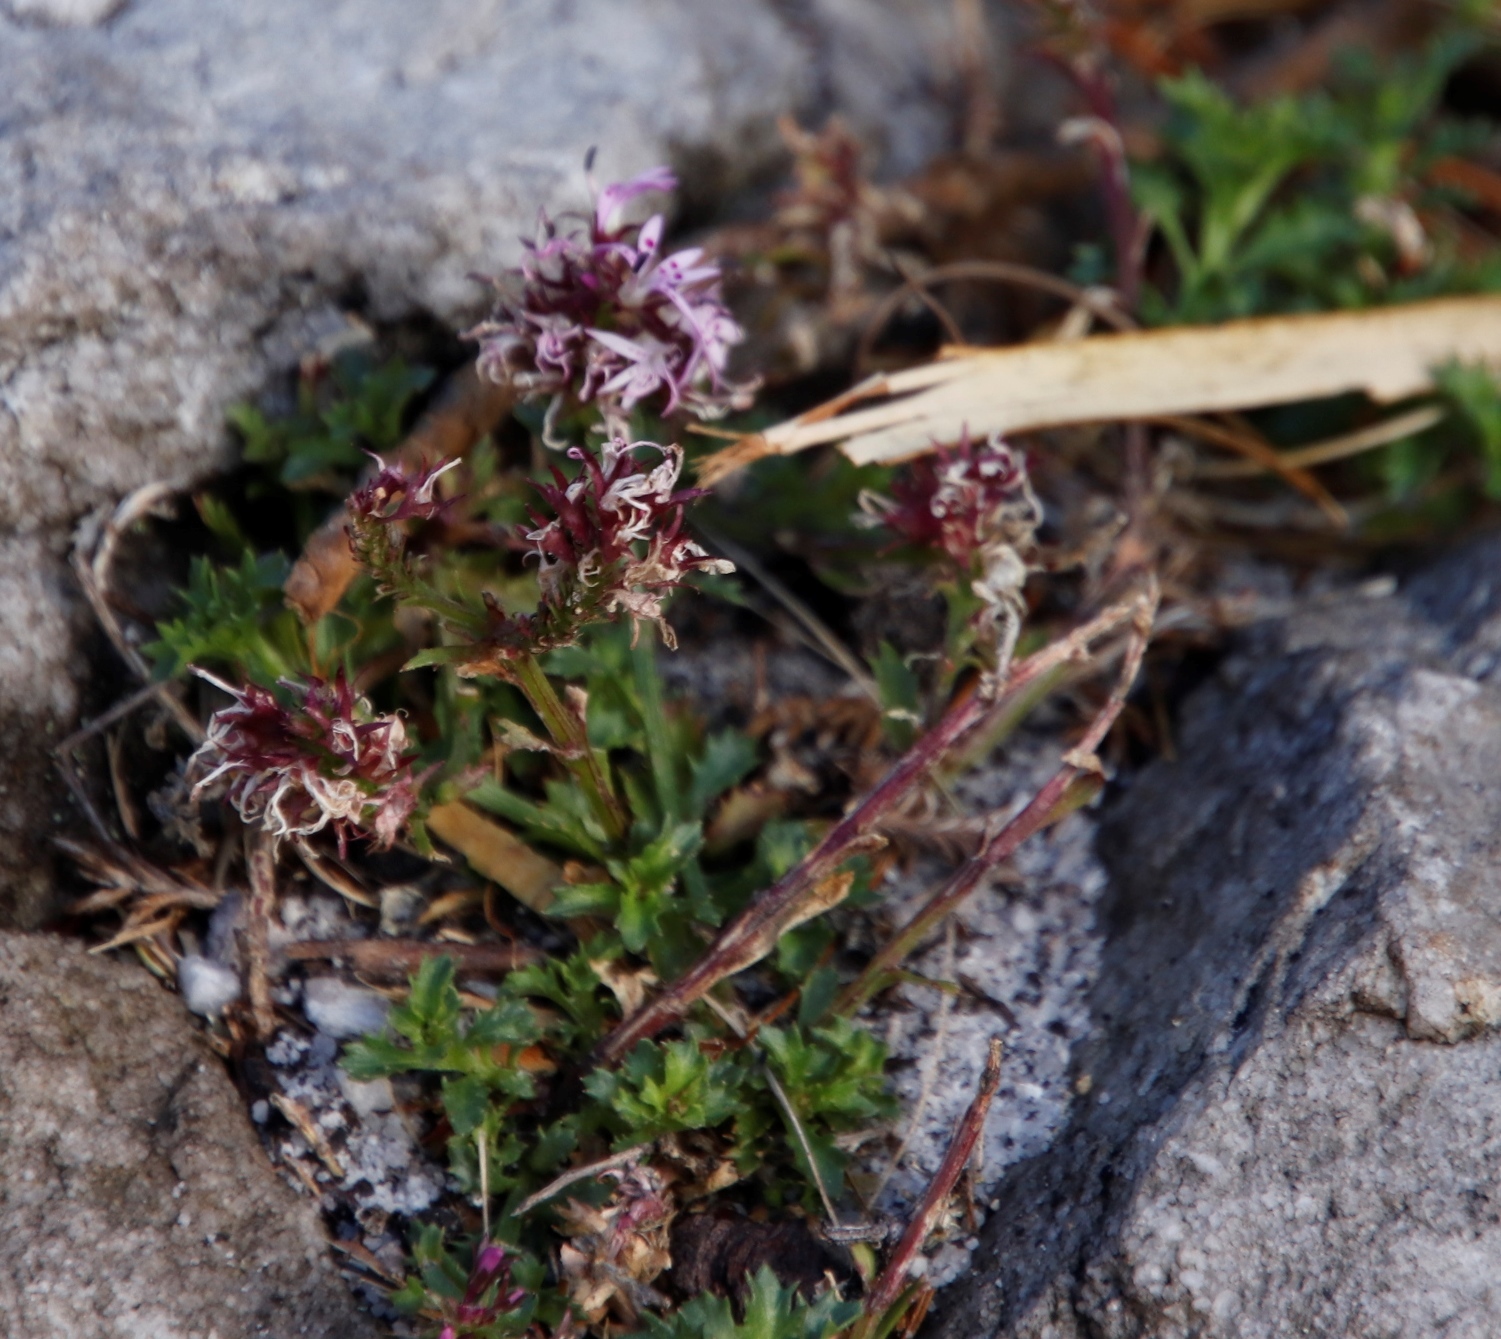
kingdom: Plantae
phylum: Tracheophyta
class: Magnoliopsida
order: Asterales
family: Campanulaceae
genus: Lobelia
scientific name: Lobelia jasionoides
